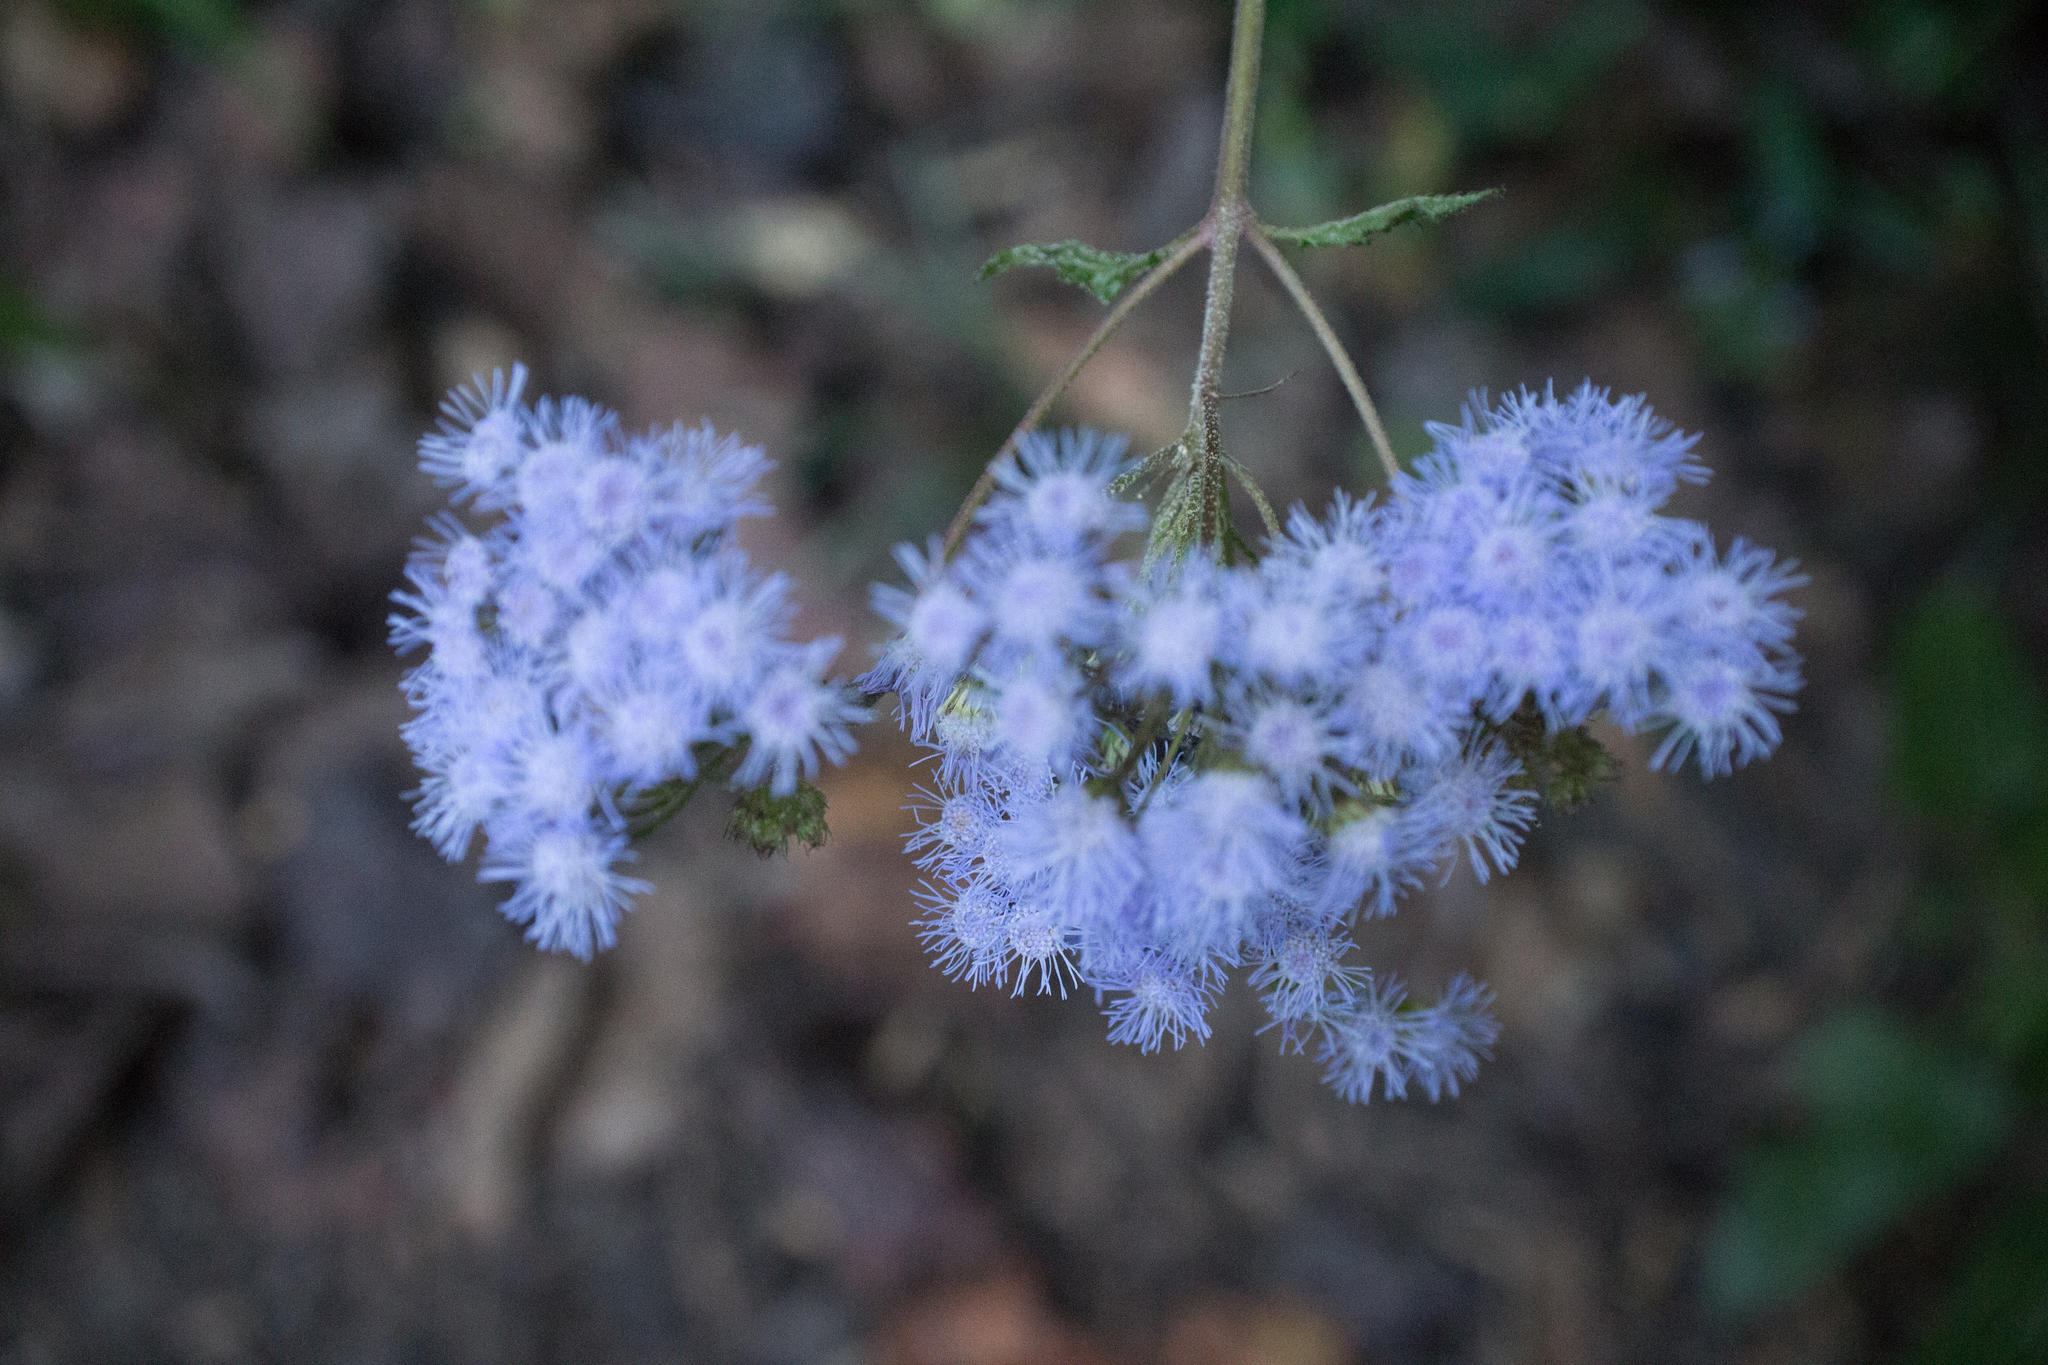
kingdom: Plantae
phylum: Tracheophyta
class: Magnoliopsida
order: Asterales
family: Asteraceae
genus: Conoclinium
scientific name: Conoclinium coelestinum
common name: Blue mistflower
